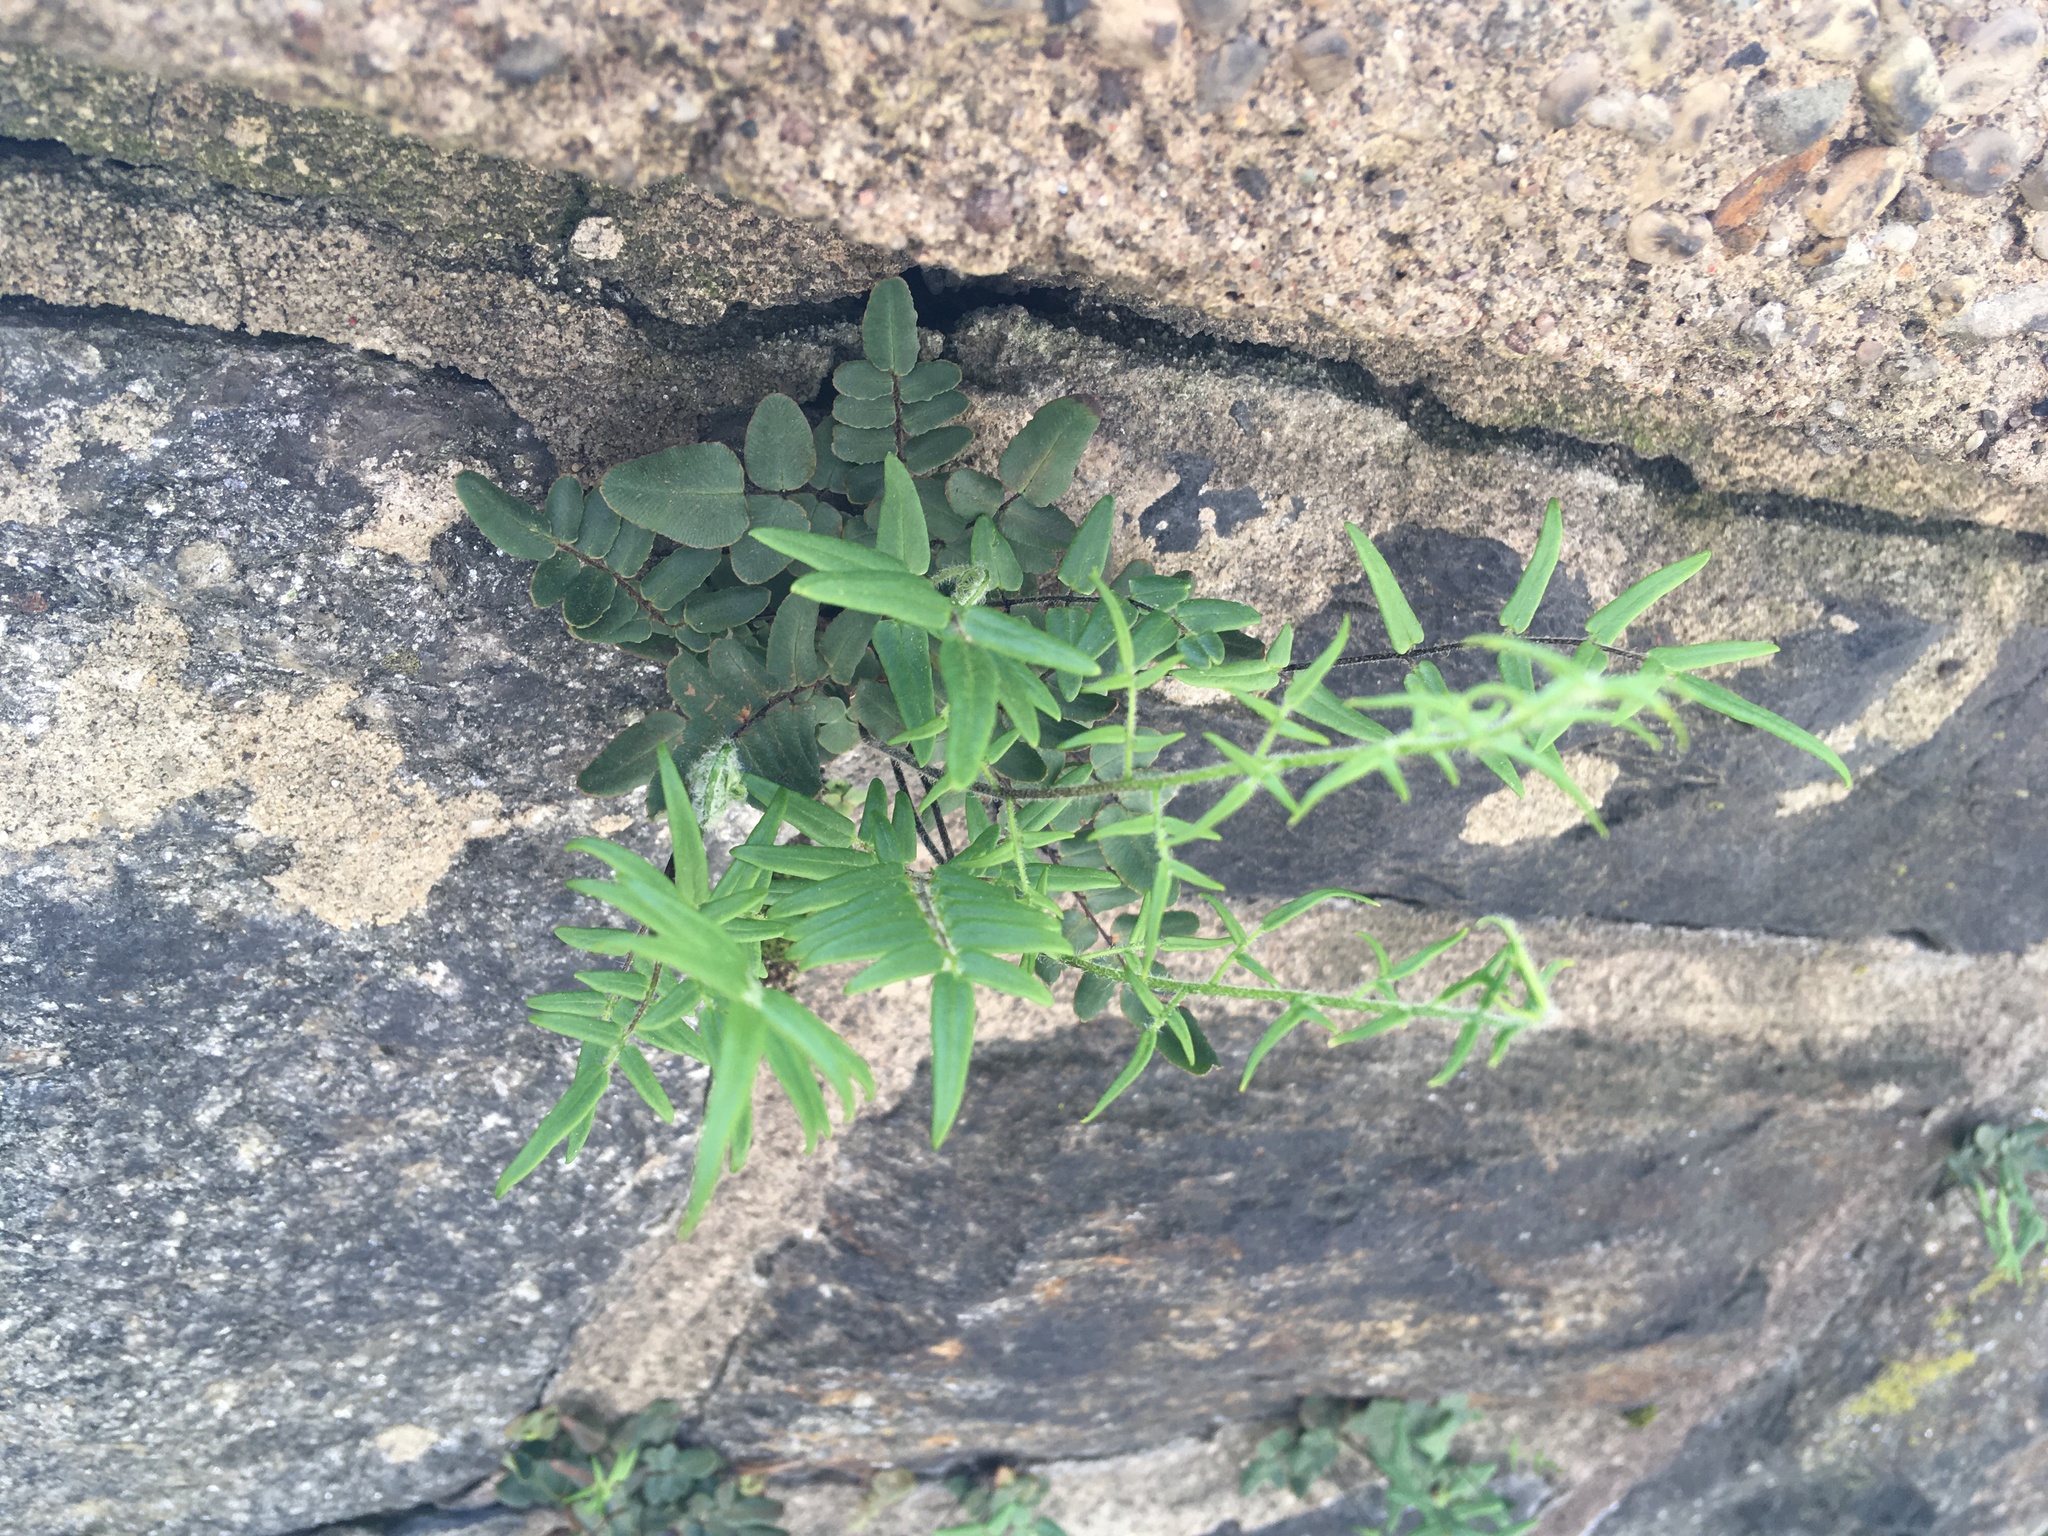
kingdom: Plantae
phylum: Tracheophyta
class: Polypodiopsida
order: Polypodiales
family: Pteridaceae
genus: Pellaea
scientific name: Pellaea atropurpurea
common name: Hairy cliffbrake
